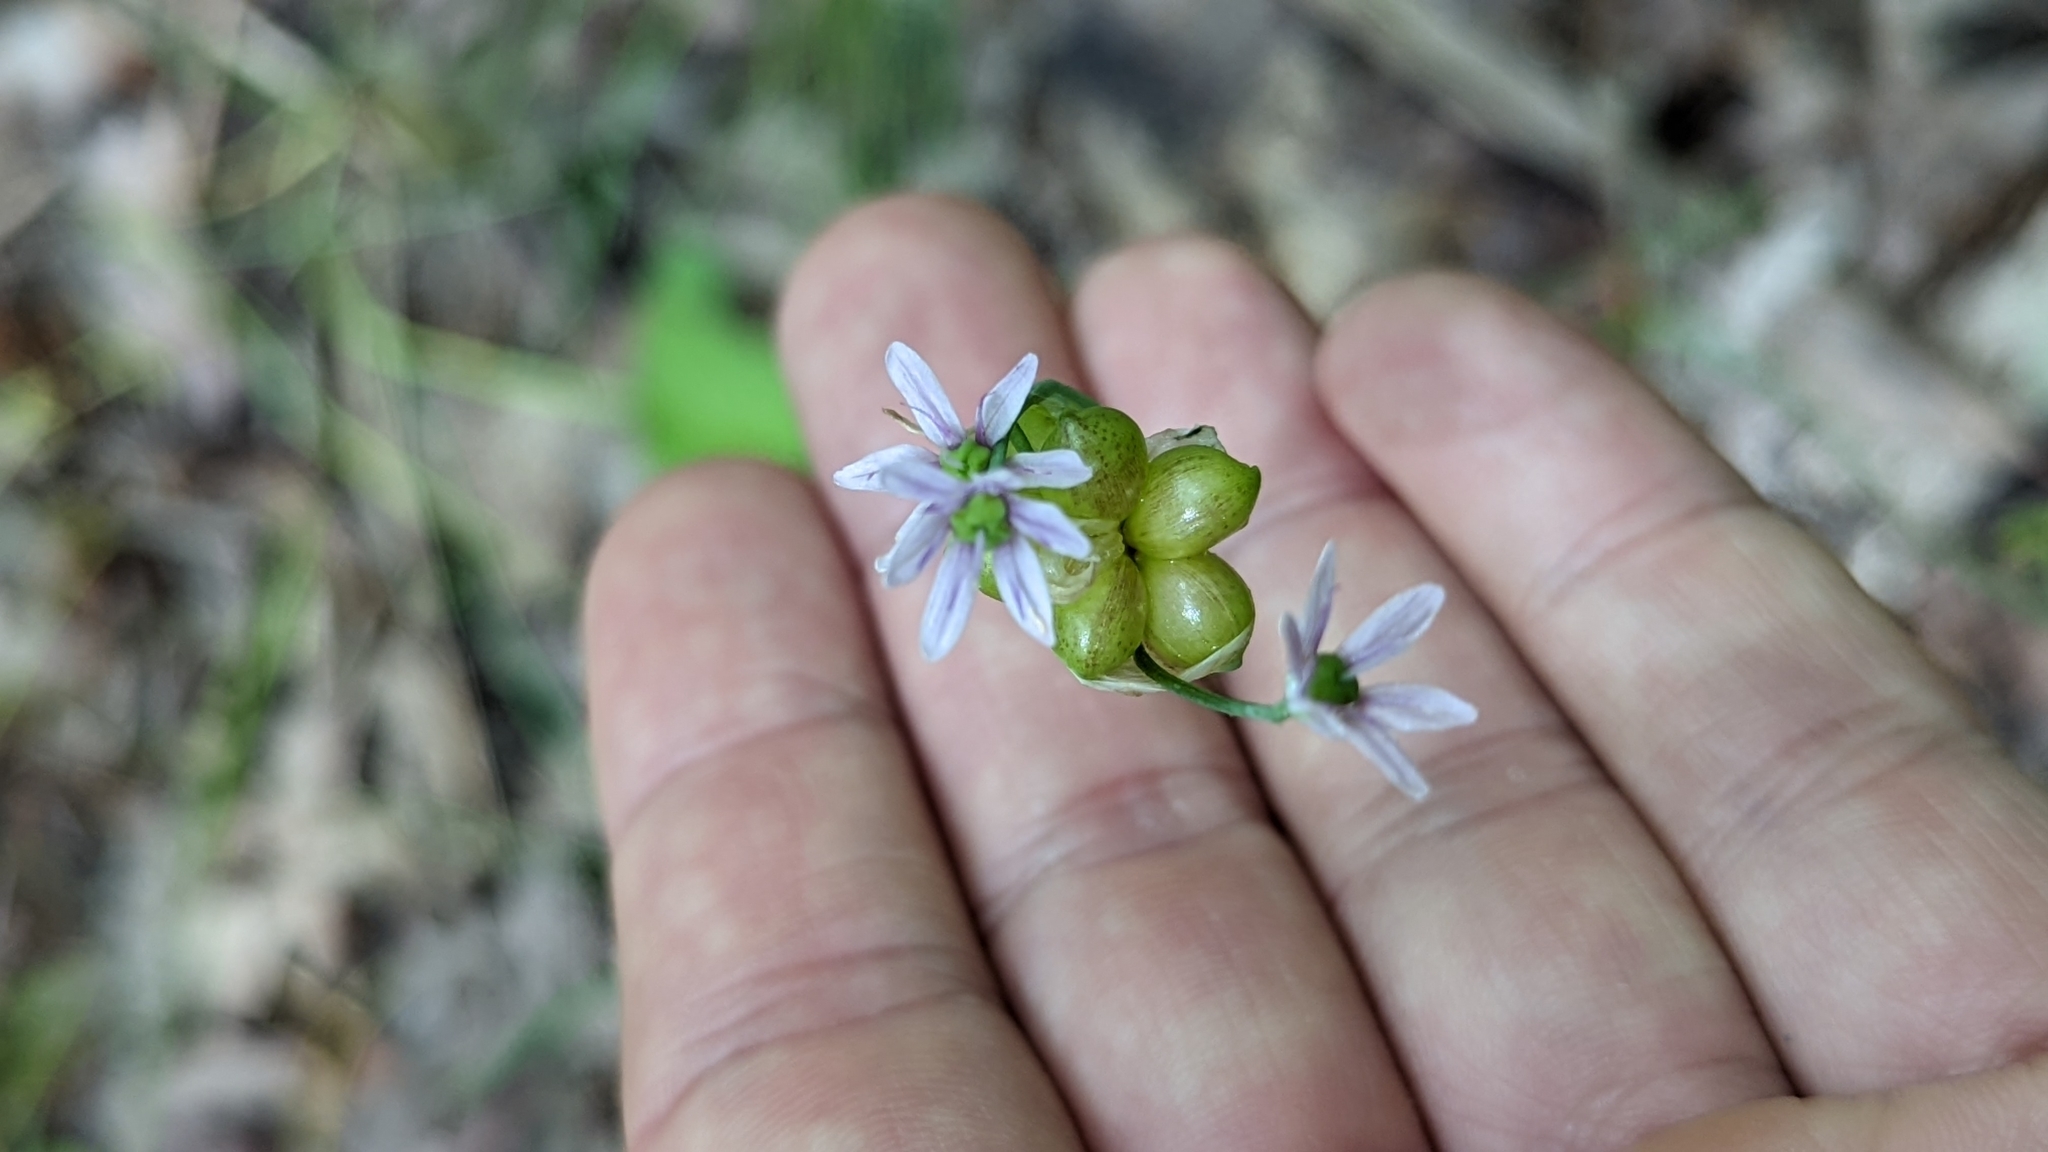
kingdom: Plantae
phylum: Tracheophyta
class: Liliopsida
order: Asparagales
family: Amaryllidaceae
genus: Allium
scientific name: Allium canadense
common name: Meadow garlic
